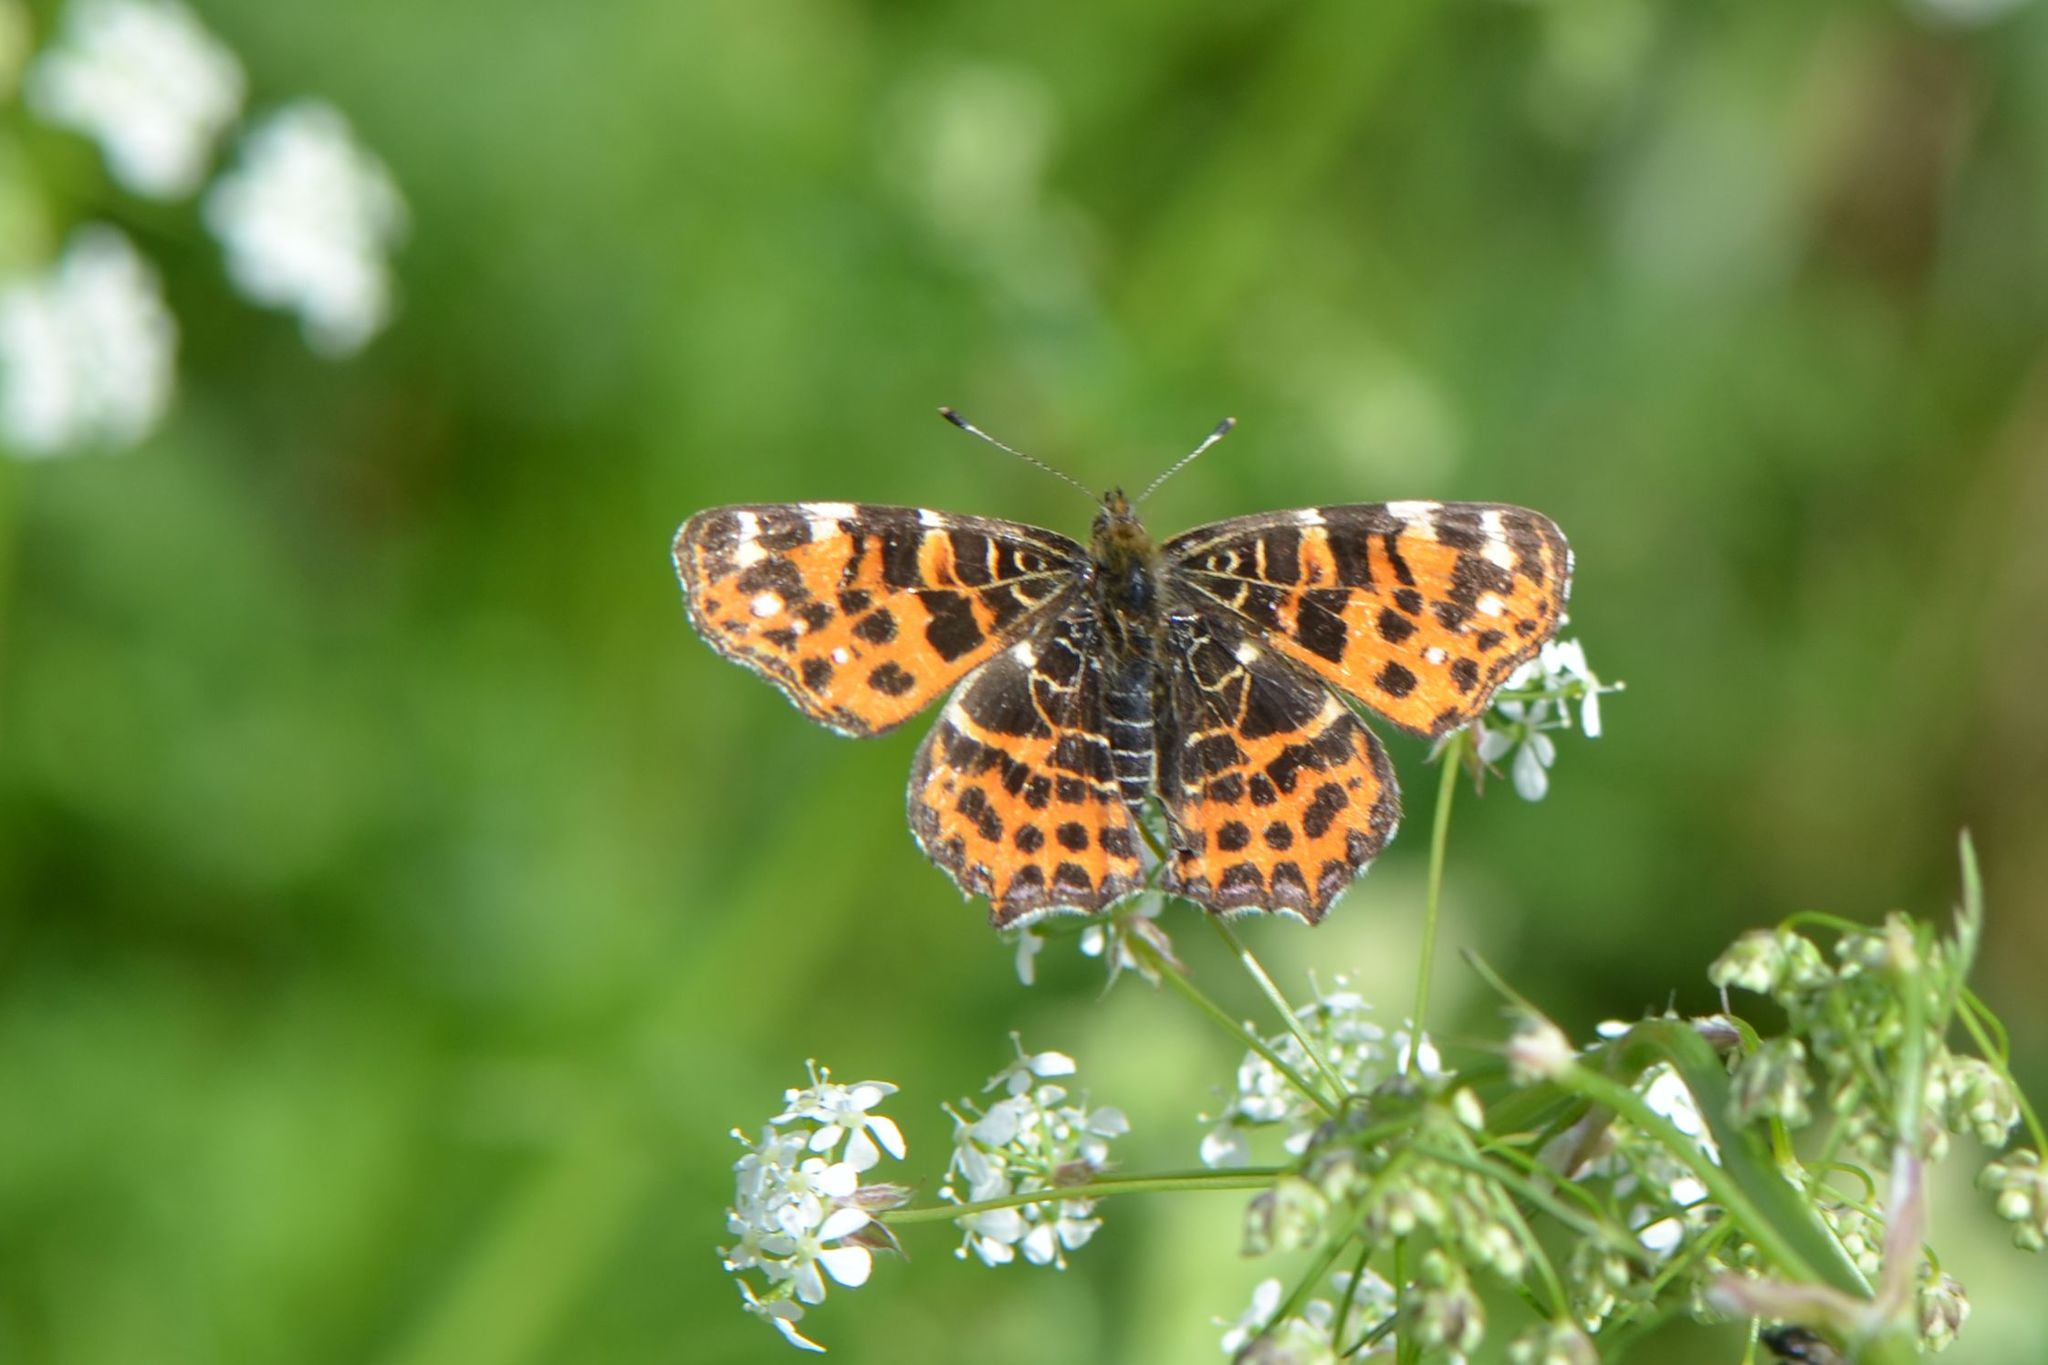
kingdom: Animalia
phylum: Arthropoda
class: Insecta
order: Lepidoptera
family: Nymphalidae
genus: Araschnia
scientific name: Araschnia levana
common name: Map butterfly
